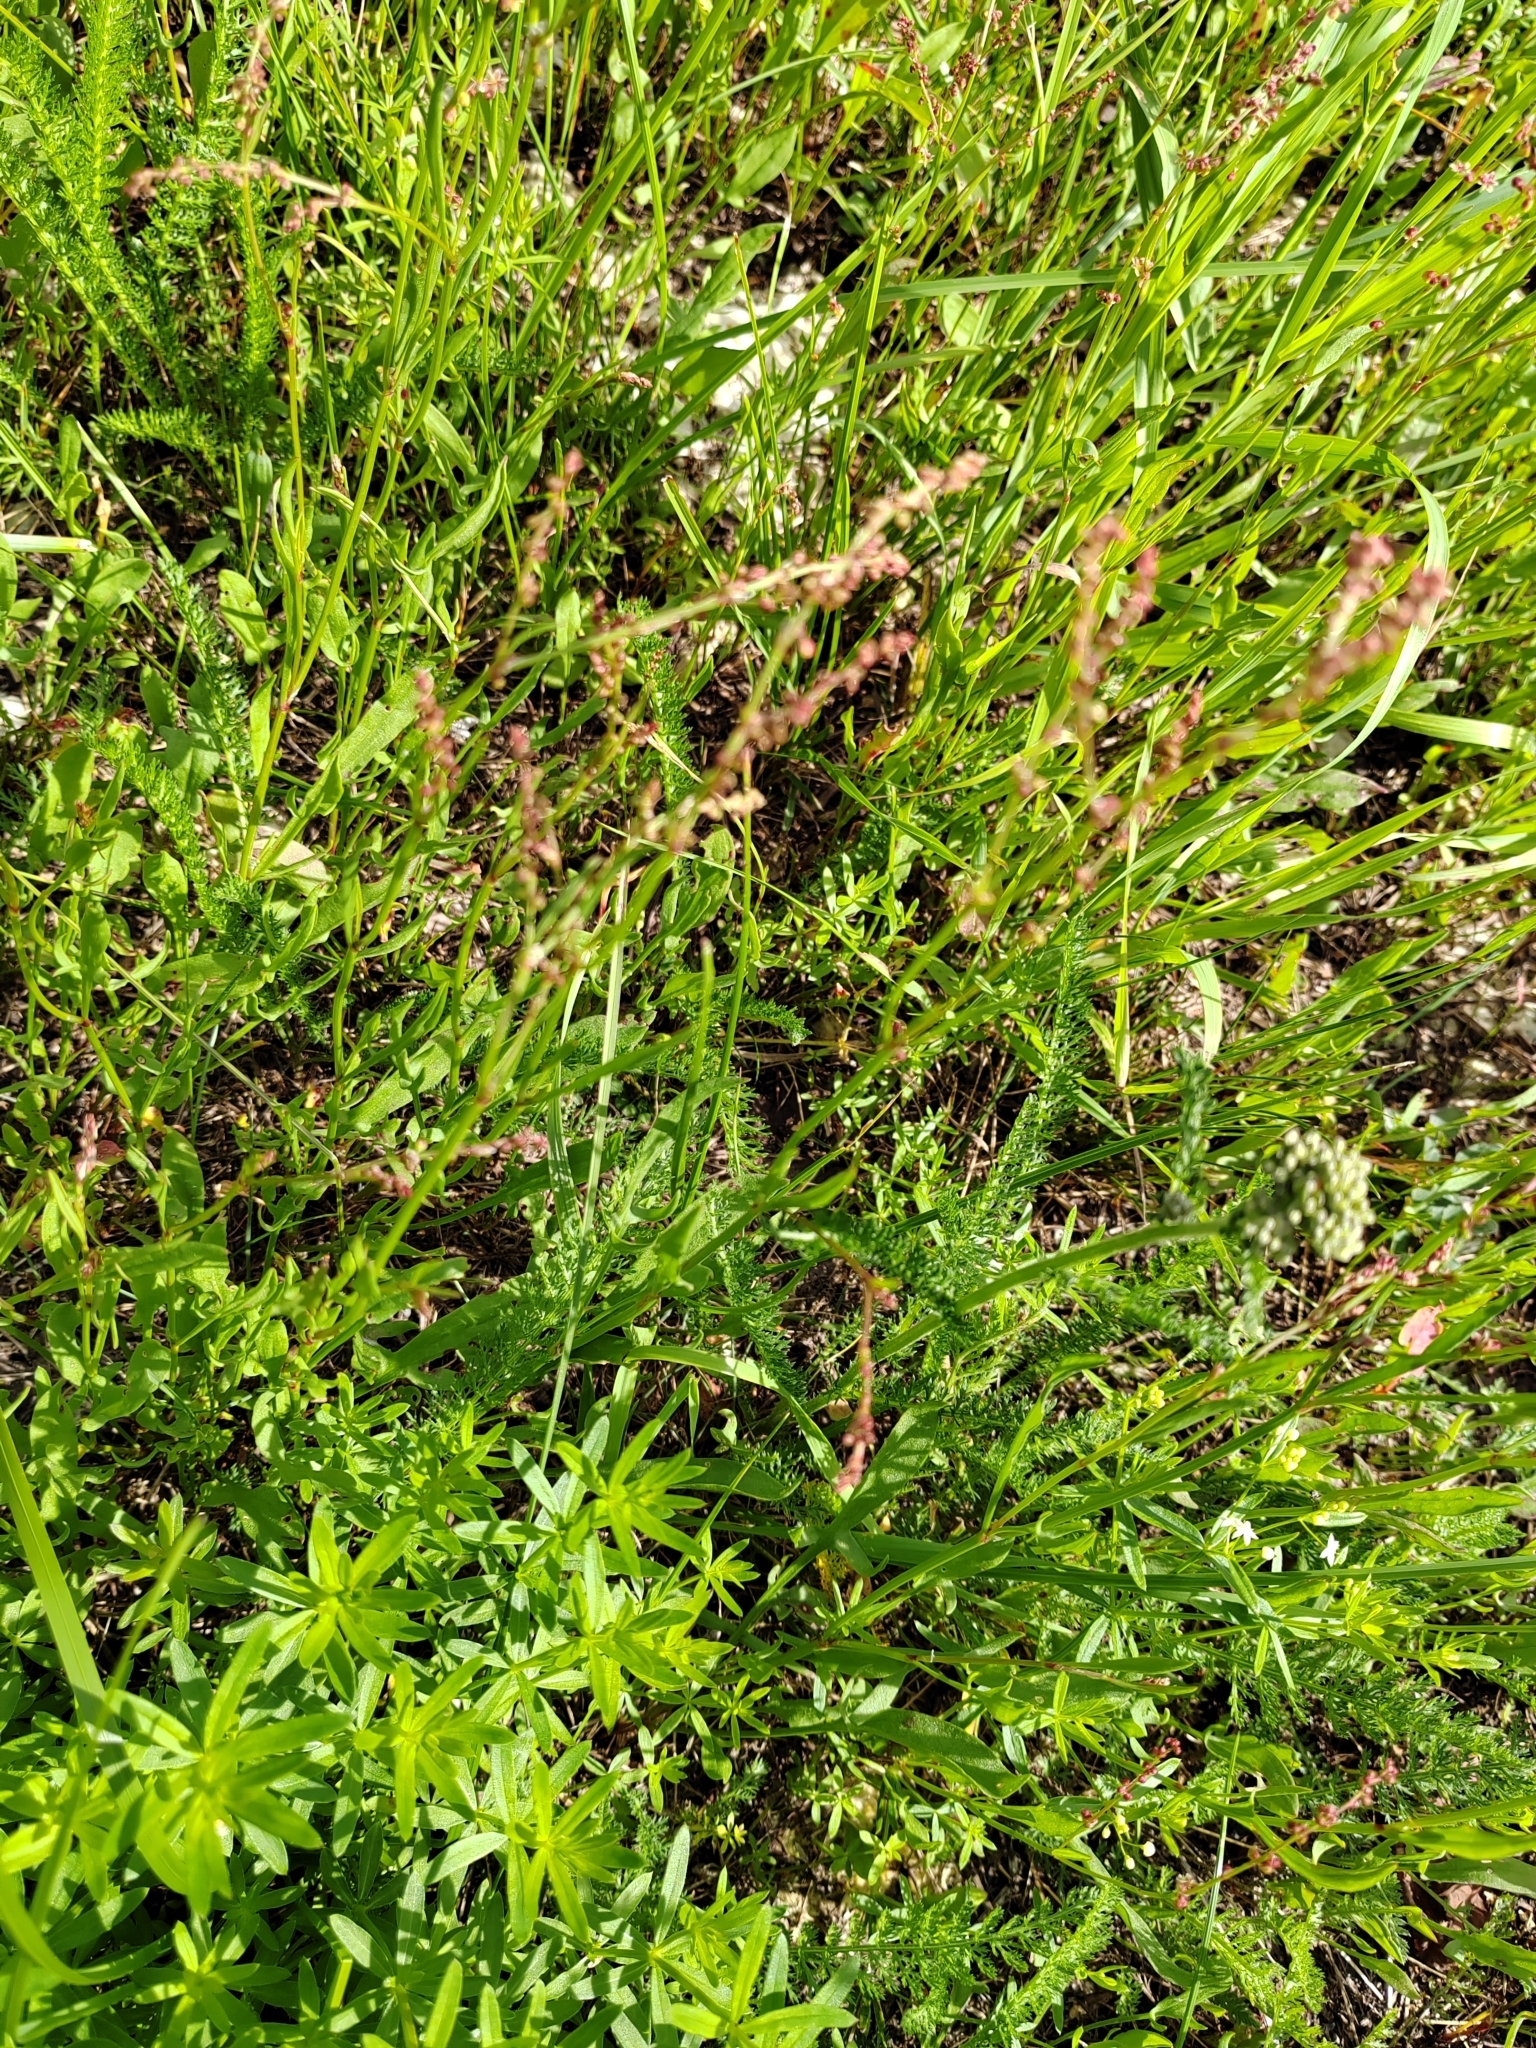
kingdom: Plantae
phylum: Tracheophyta
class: Magnoliopsida
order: Caryophyllales
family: Polygonaceae
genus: Rumex
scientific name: Rumex acetosella
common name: Common sheep sorrel
